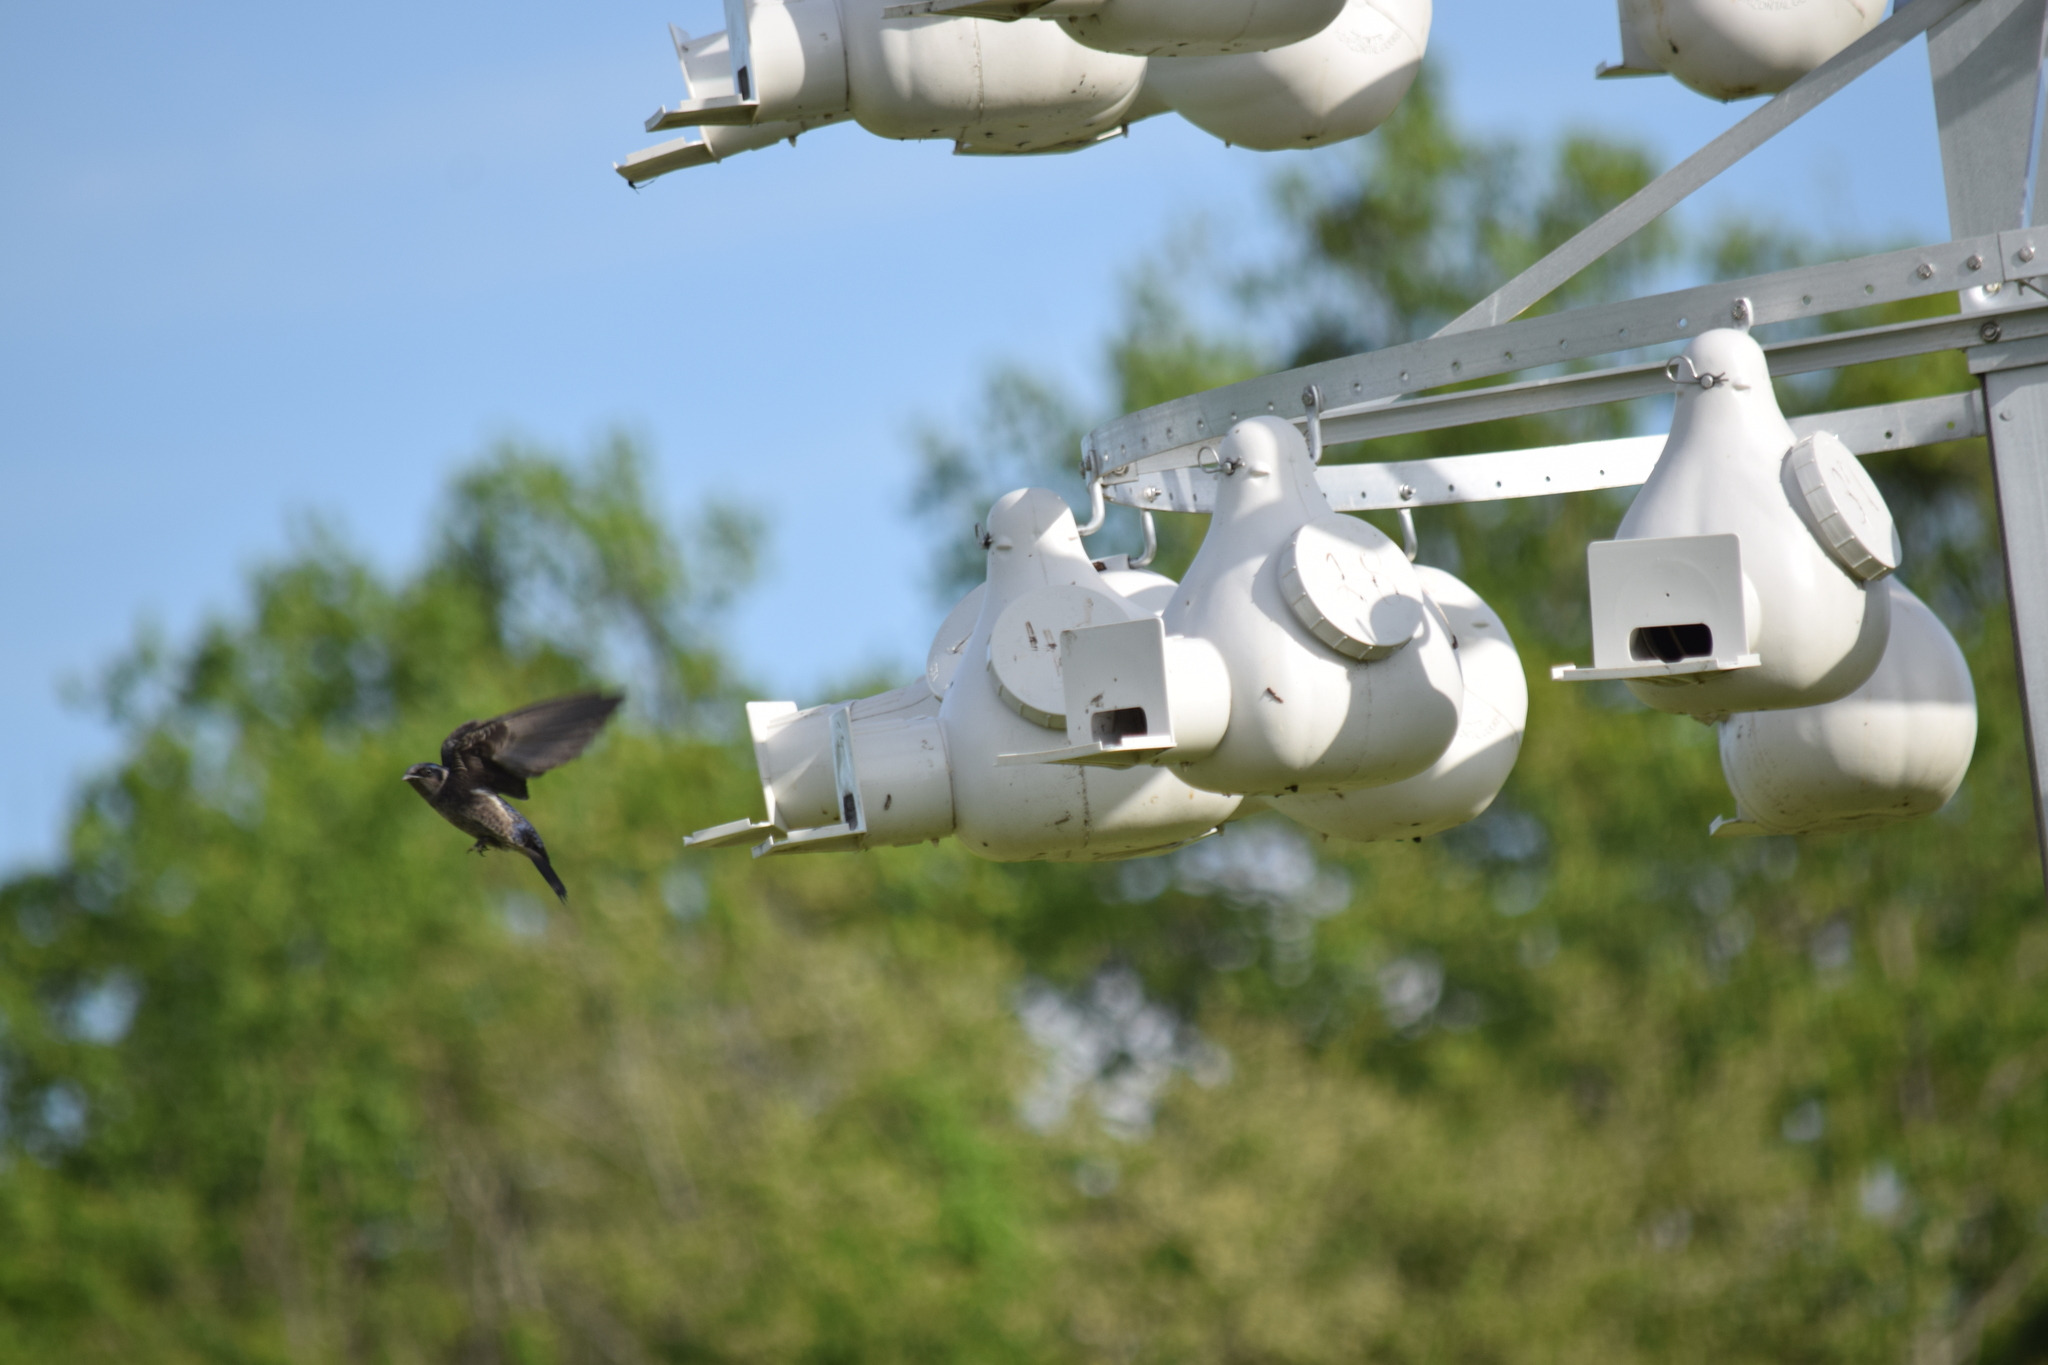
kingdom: Animalia
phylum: Chordata
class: Aves
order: Passeriformes
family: Hirundinidae
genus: Progne
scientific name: Progne subis
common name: Purple martin
